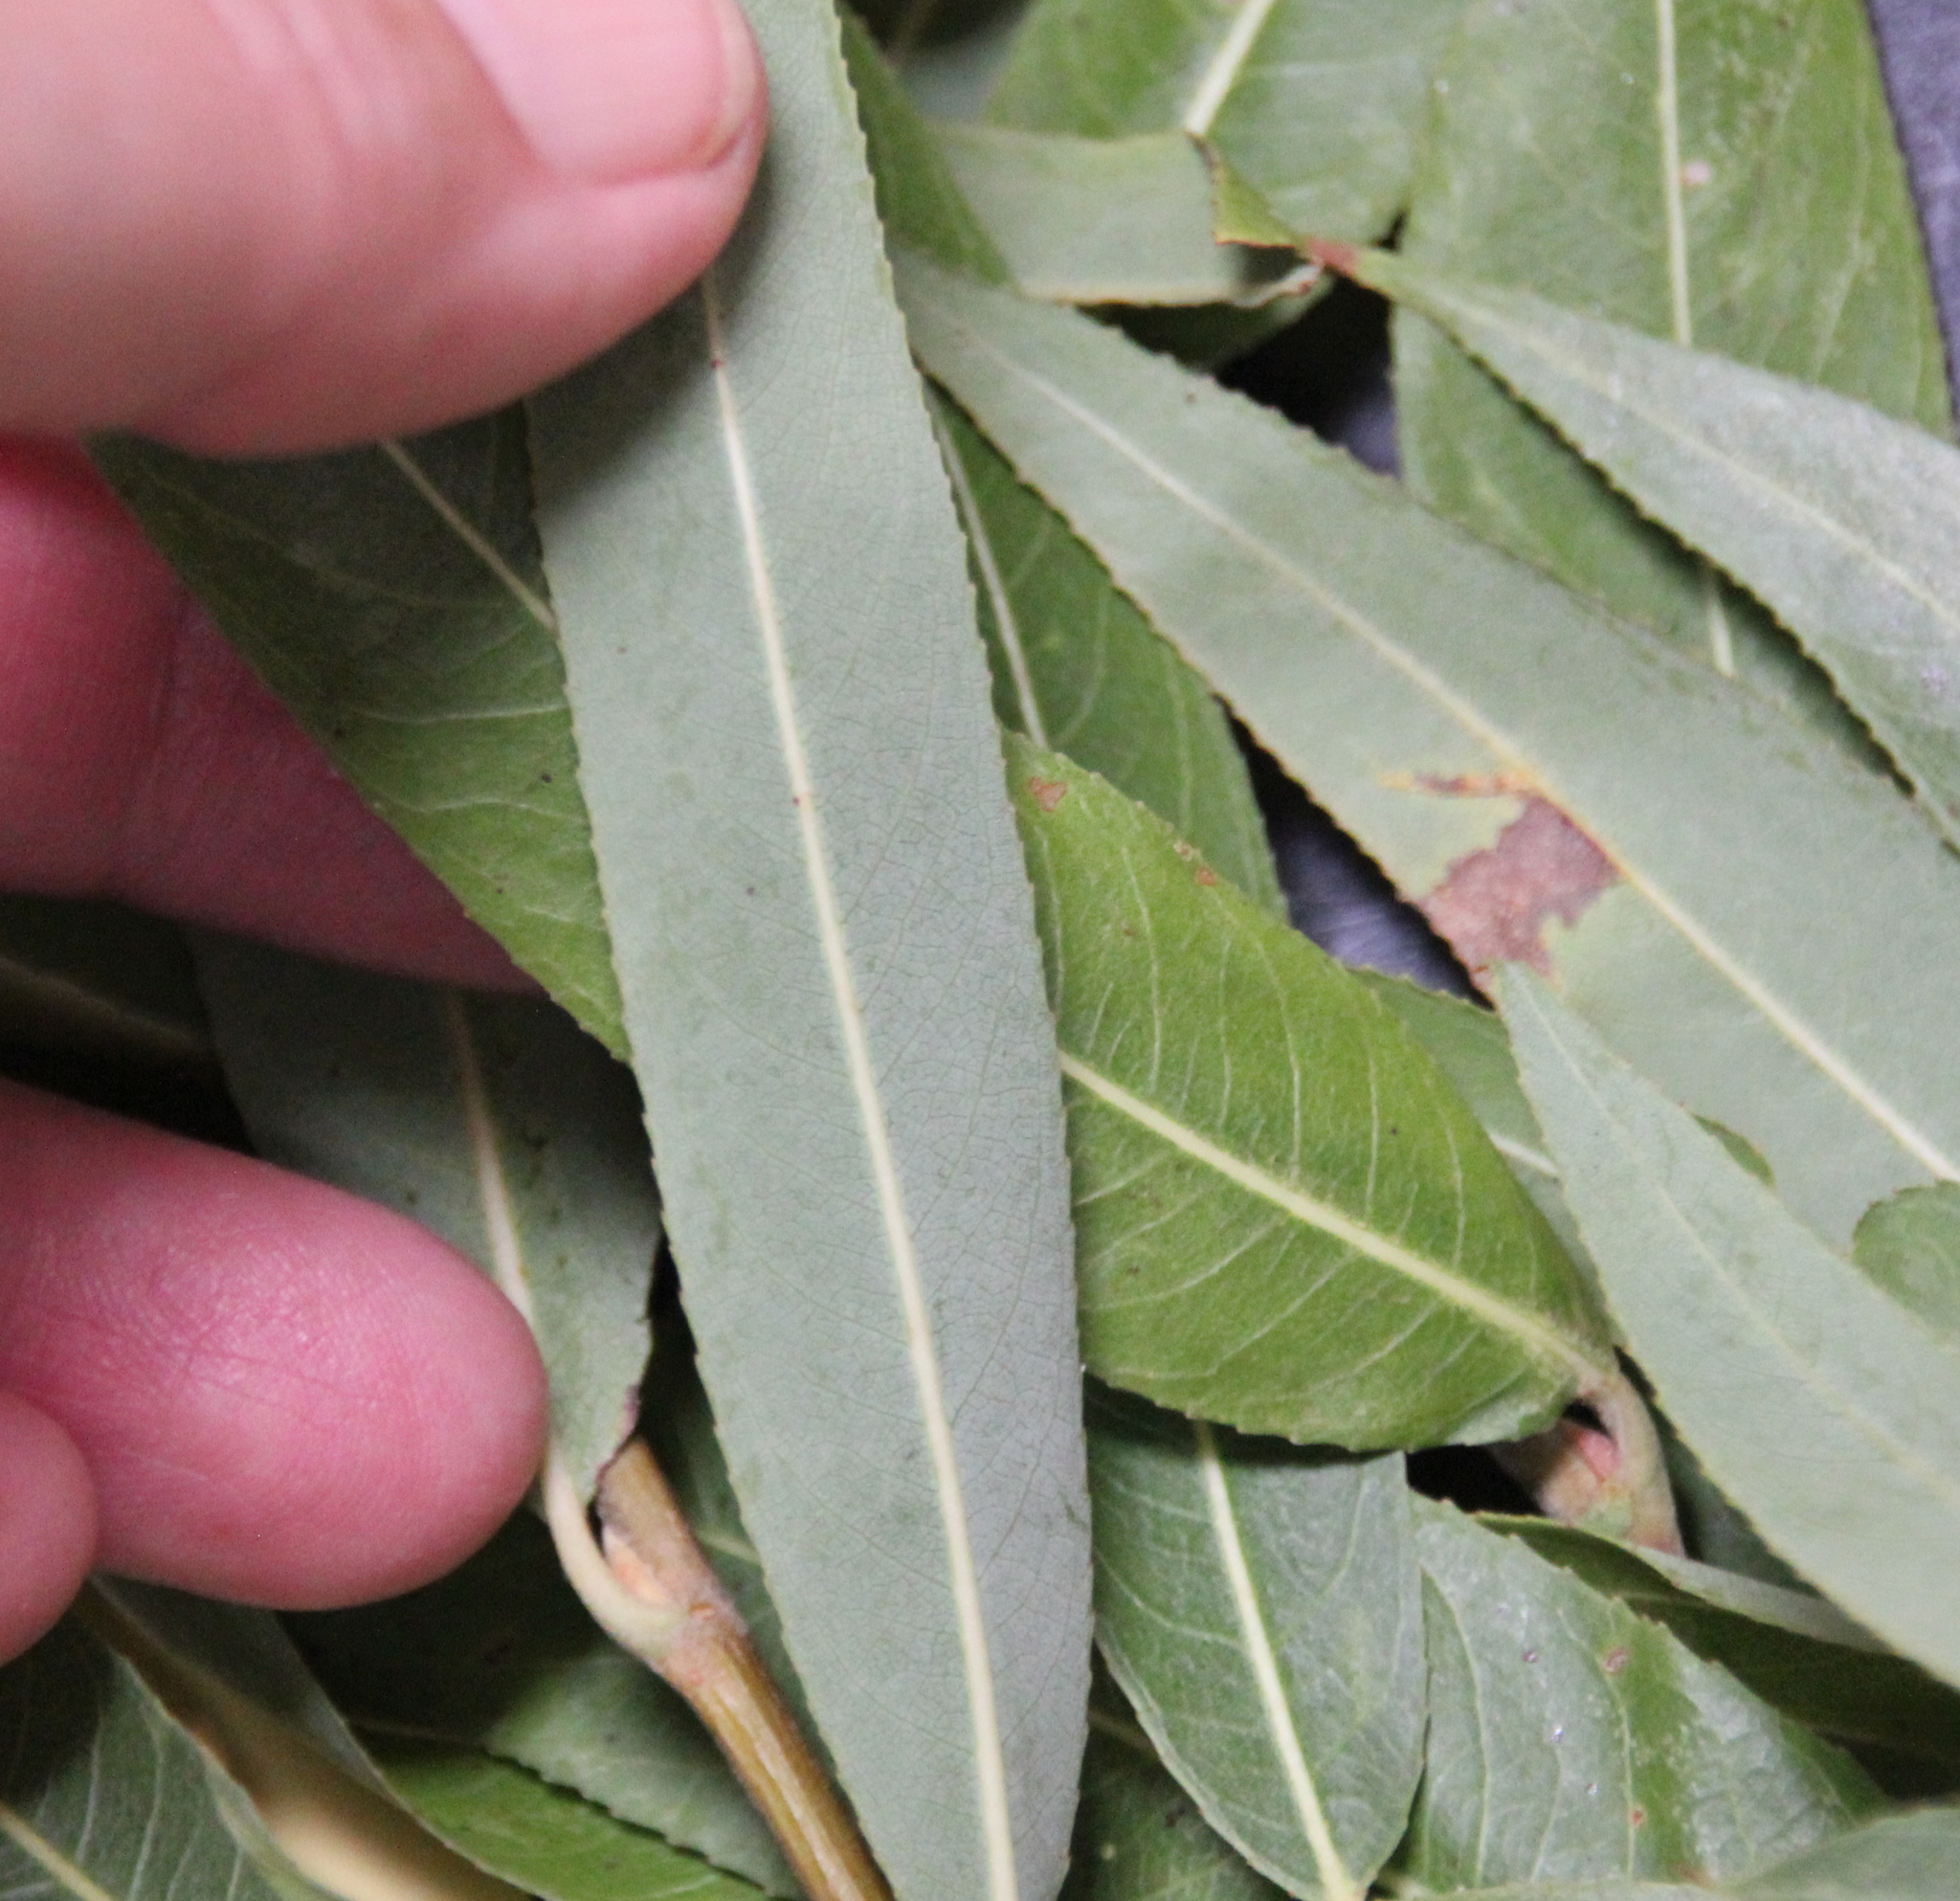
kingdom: Plantae
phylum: Tracheophyta
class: Magnoliopsida
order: Malpighiales
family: Salicaceae
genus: Salix
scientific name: Salix laevigata
